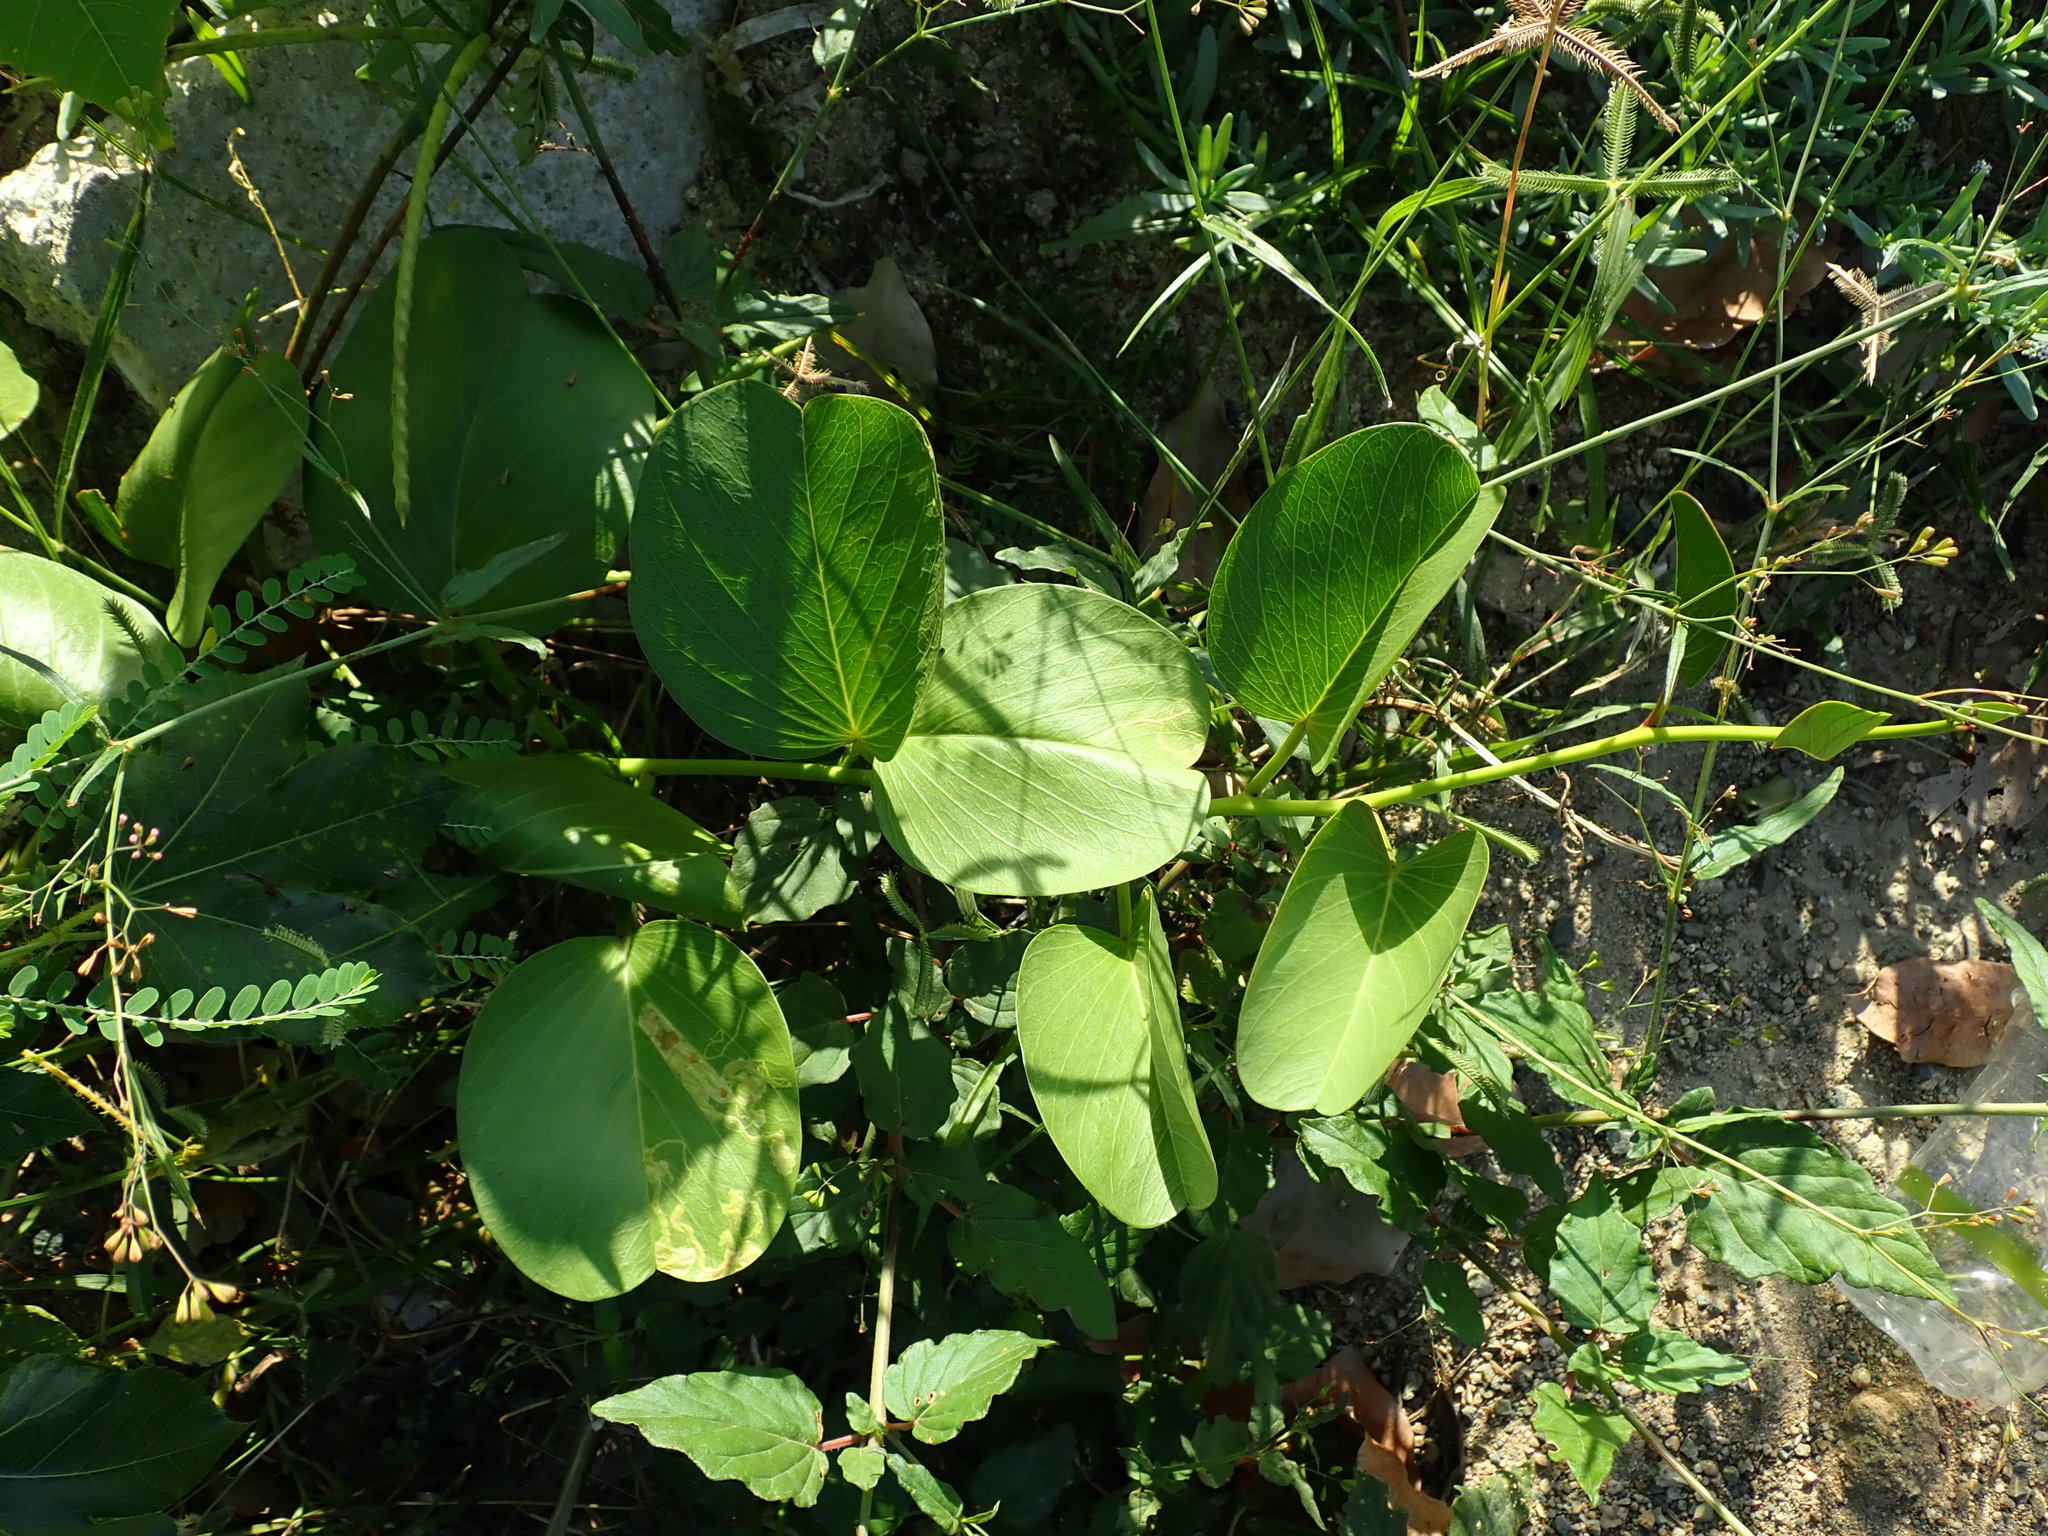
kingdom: Plantae
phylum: Tracheophyta
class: Magnoliopsida
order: Solanales
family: Convolvulaceae
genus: Ipomoea
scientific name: Ipomoea pes-caprae
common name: Beach morning glory
